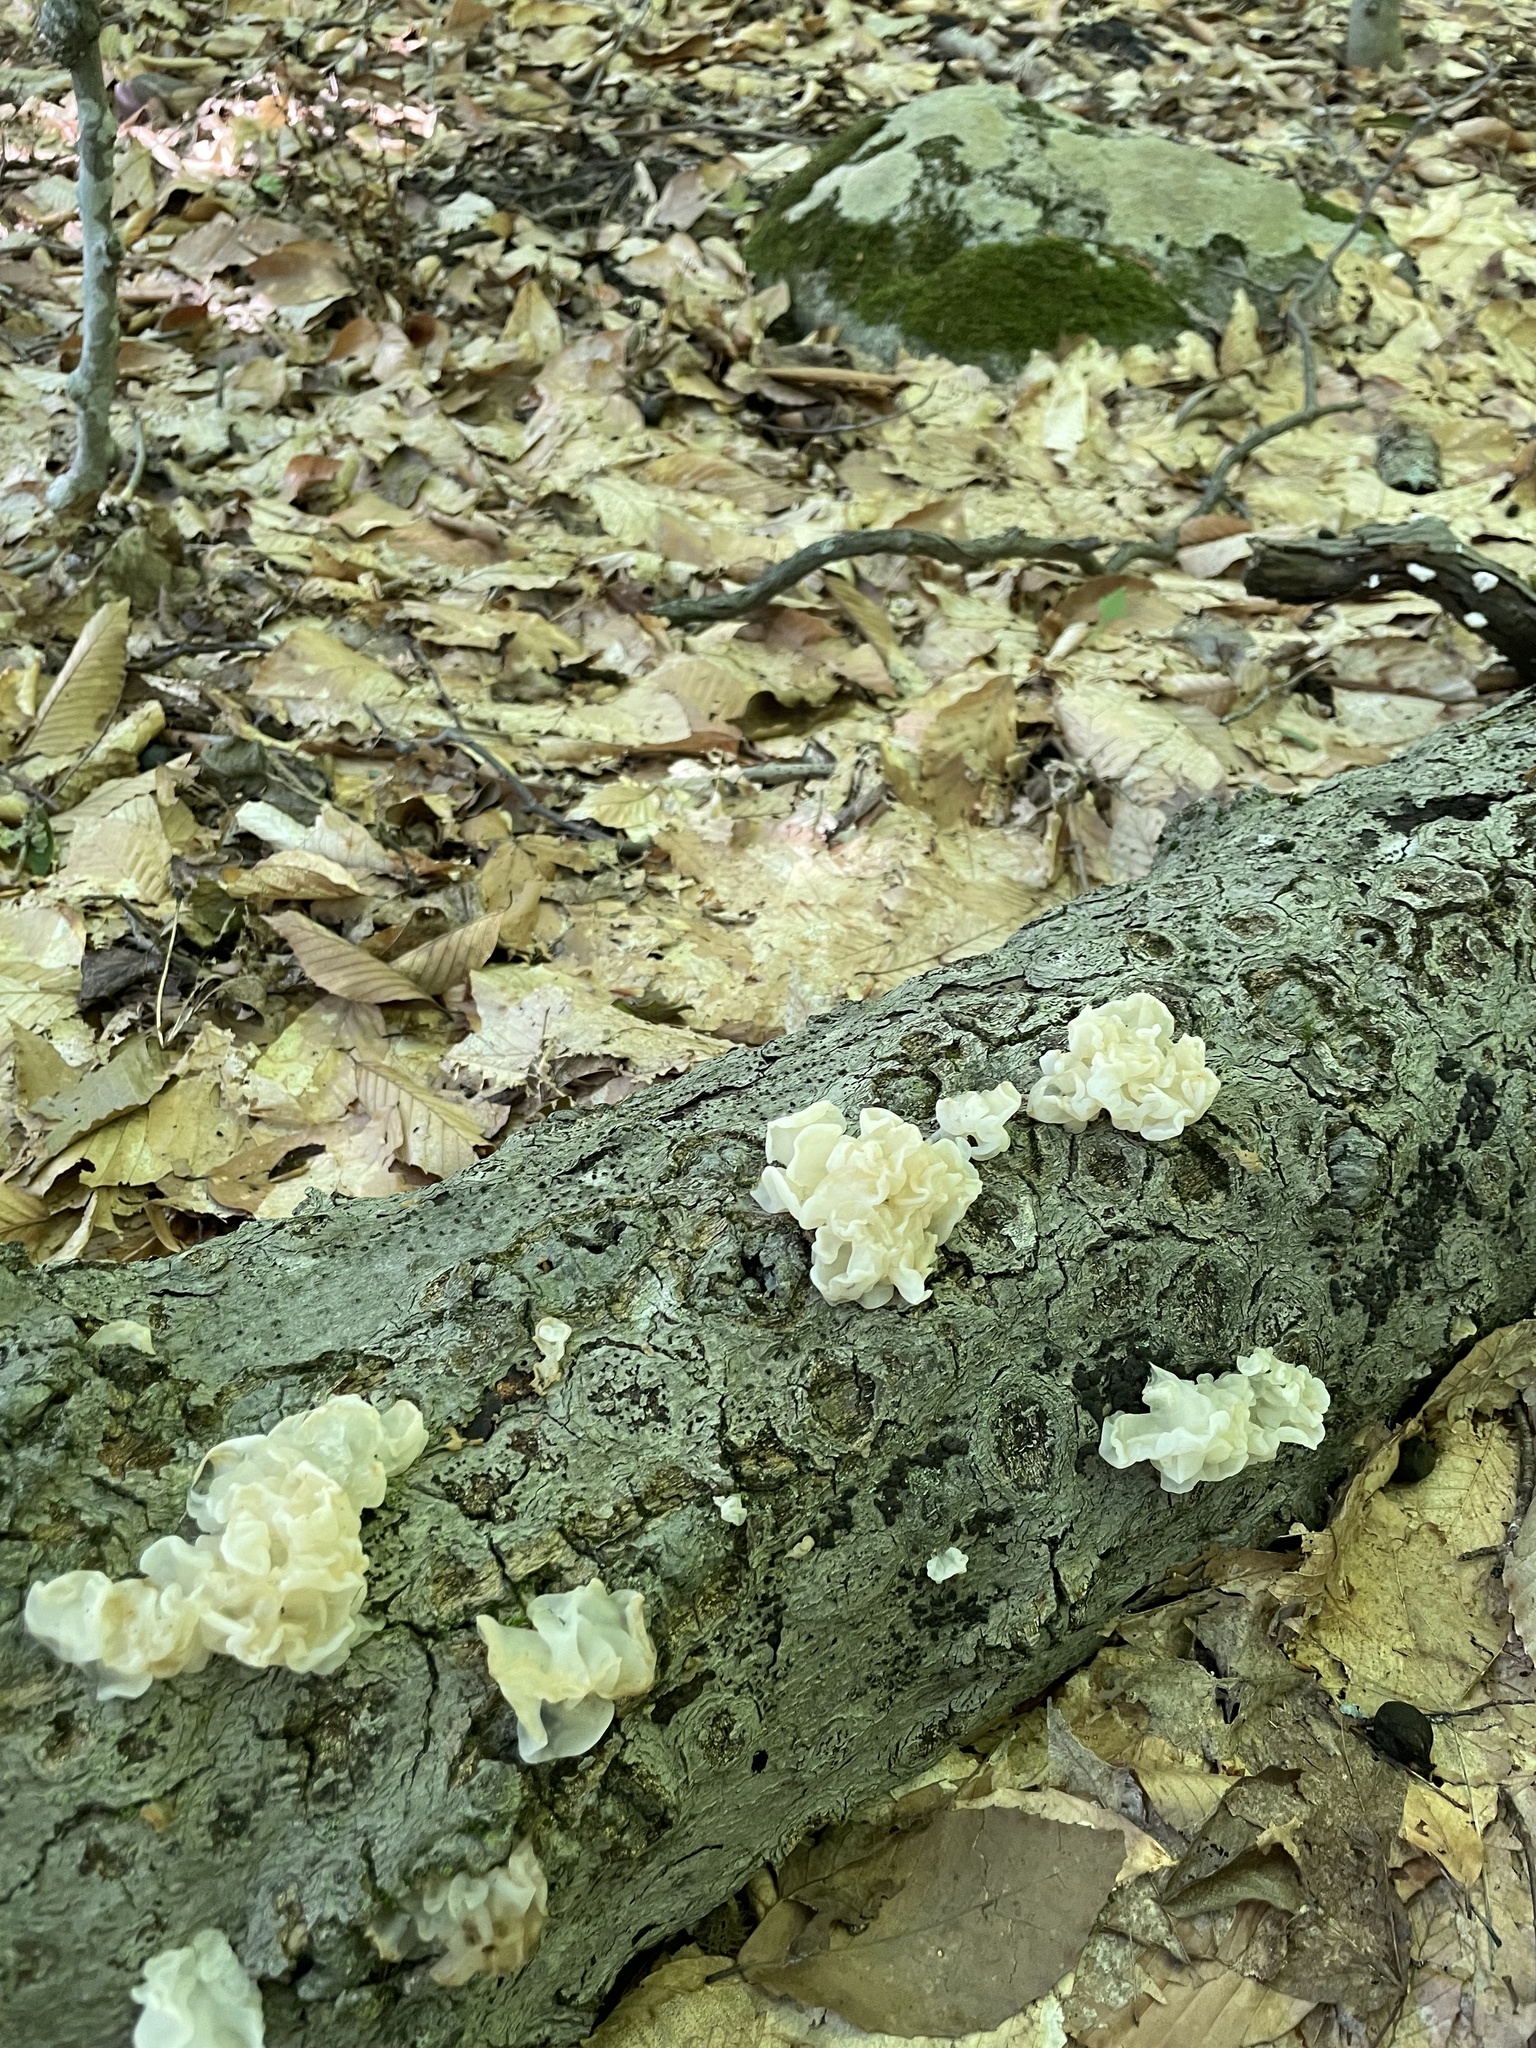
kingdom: Fungi
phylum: Basidiomycota
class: Agaricomycetes
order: Auriculariales
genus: Ductifera
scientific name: Ductifera pululahuana
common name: White jelly fungus
